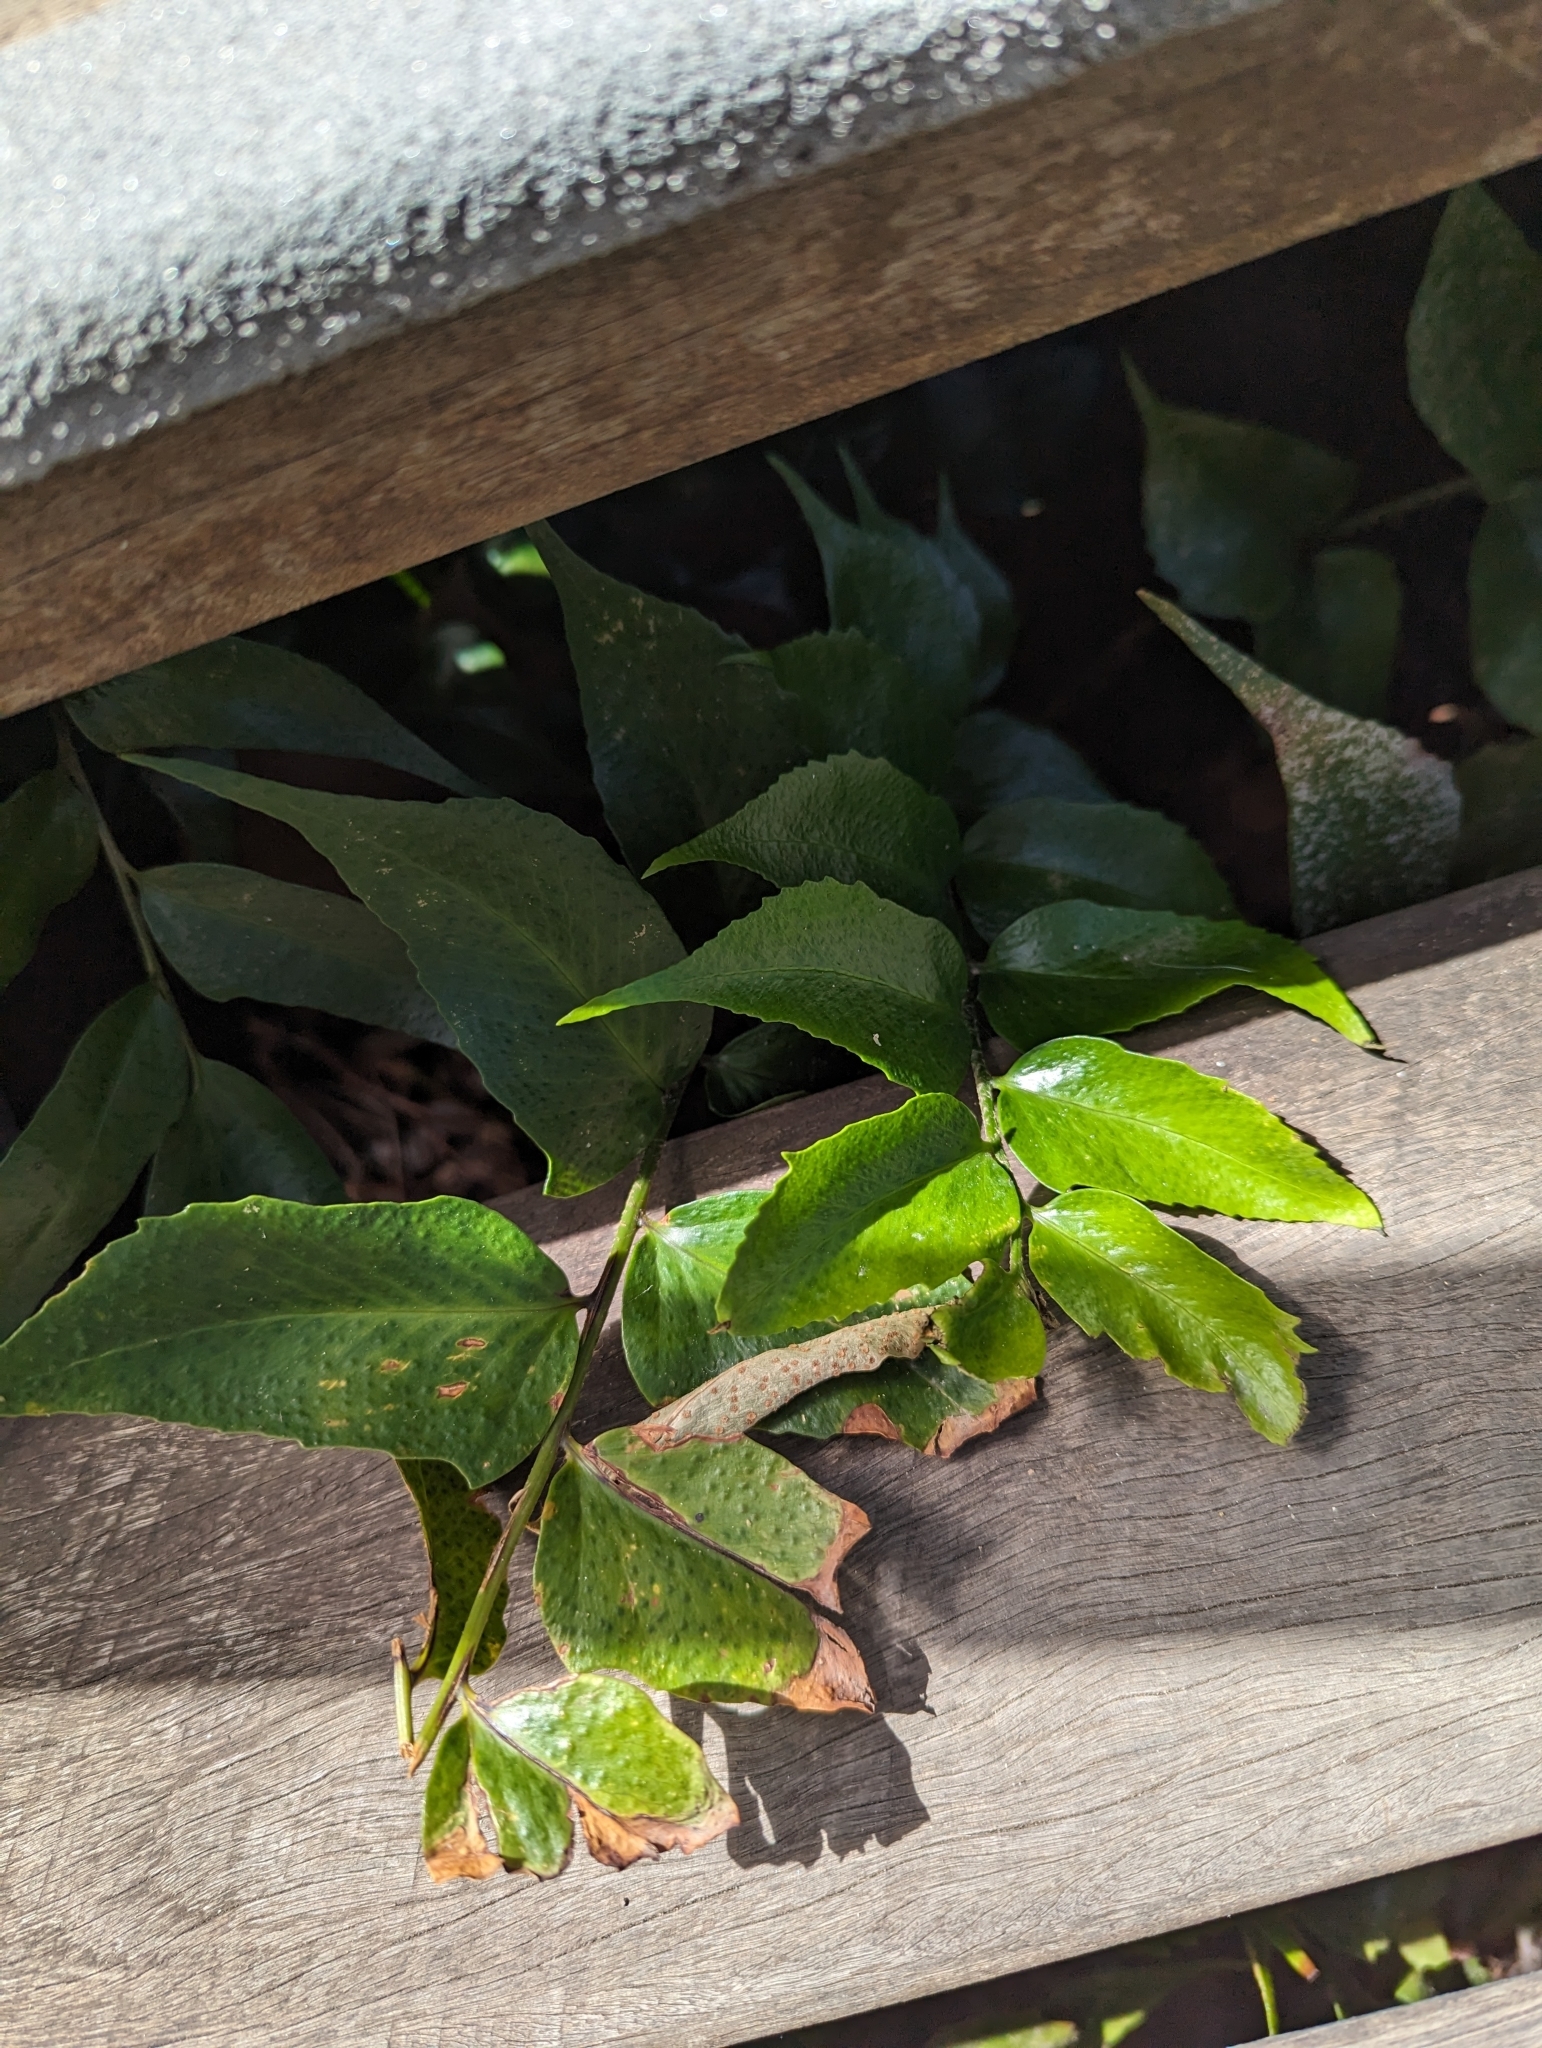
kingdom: Plantae
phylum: Tracheophyta
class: Polypodiopsida
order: Polypodiales
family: Dryopteridaceae
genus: Cyrtomium
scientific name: Cyrtomium falcatum
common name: House holly-fern
